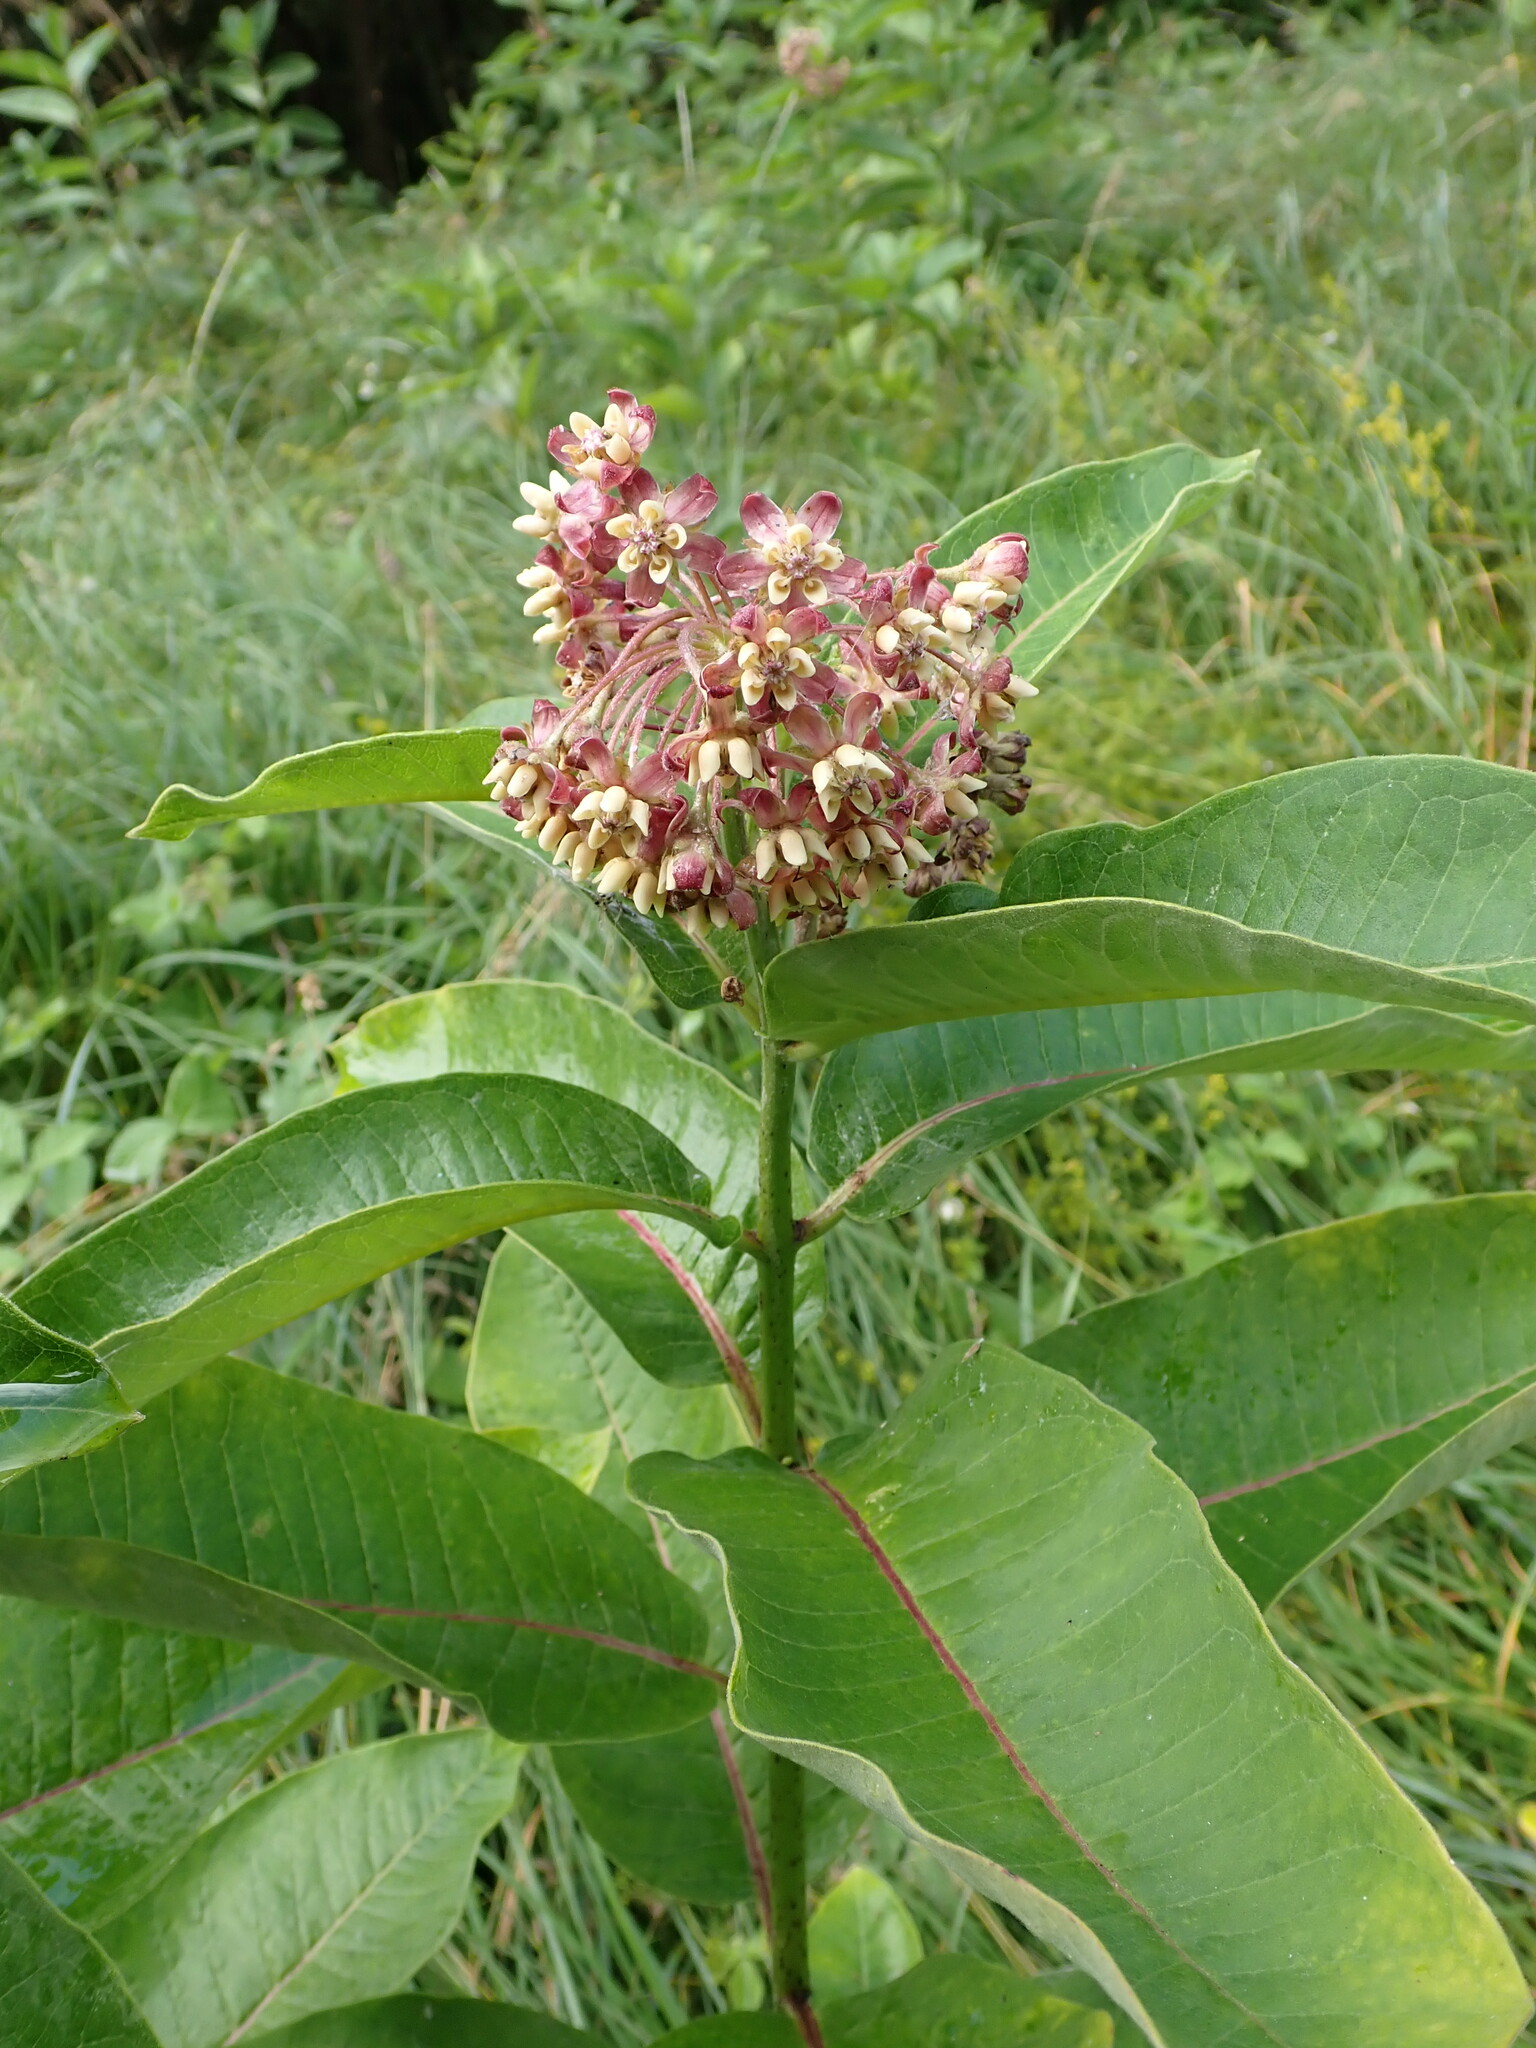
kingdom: Plantae
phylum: Tracheophyta
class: Magnoliopsida
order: Gentianales
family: Apocynaceae
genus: Asclepias
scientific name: Asclepias syriaca
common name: Common milkweed
